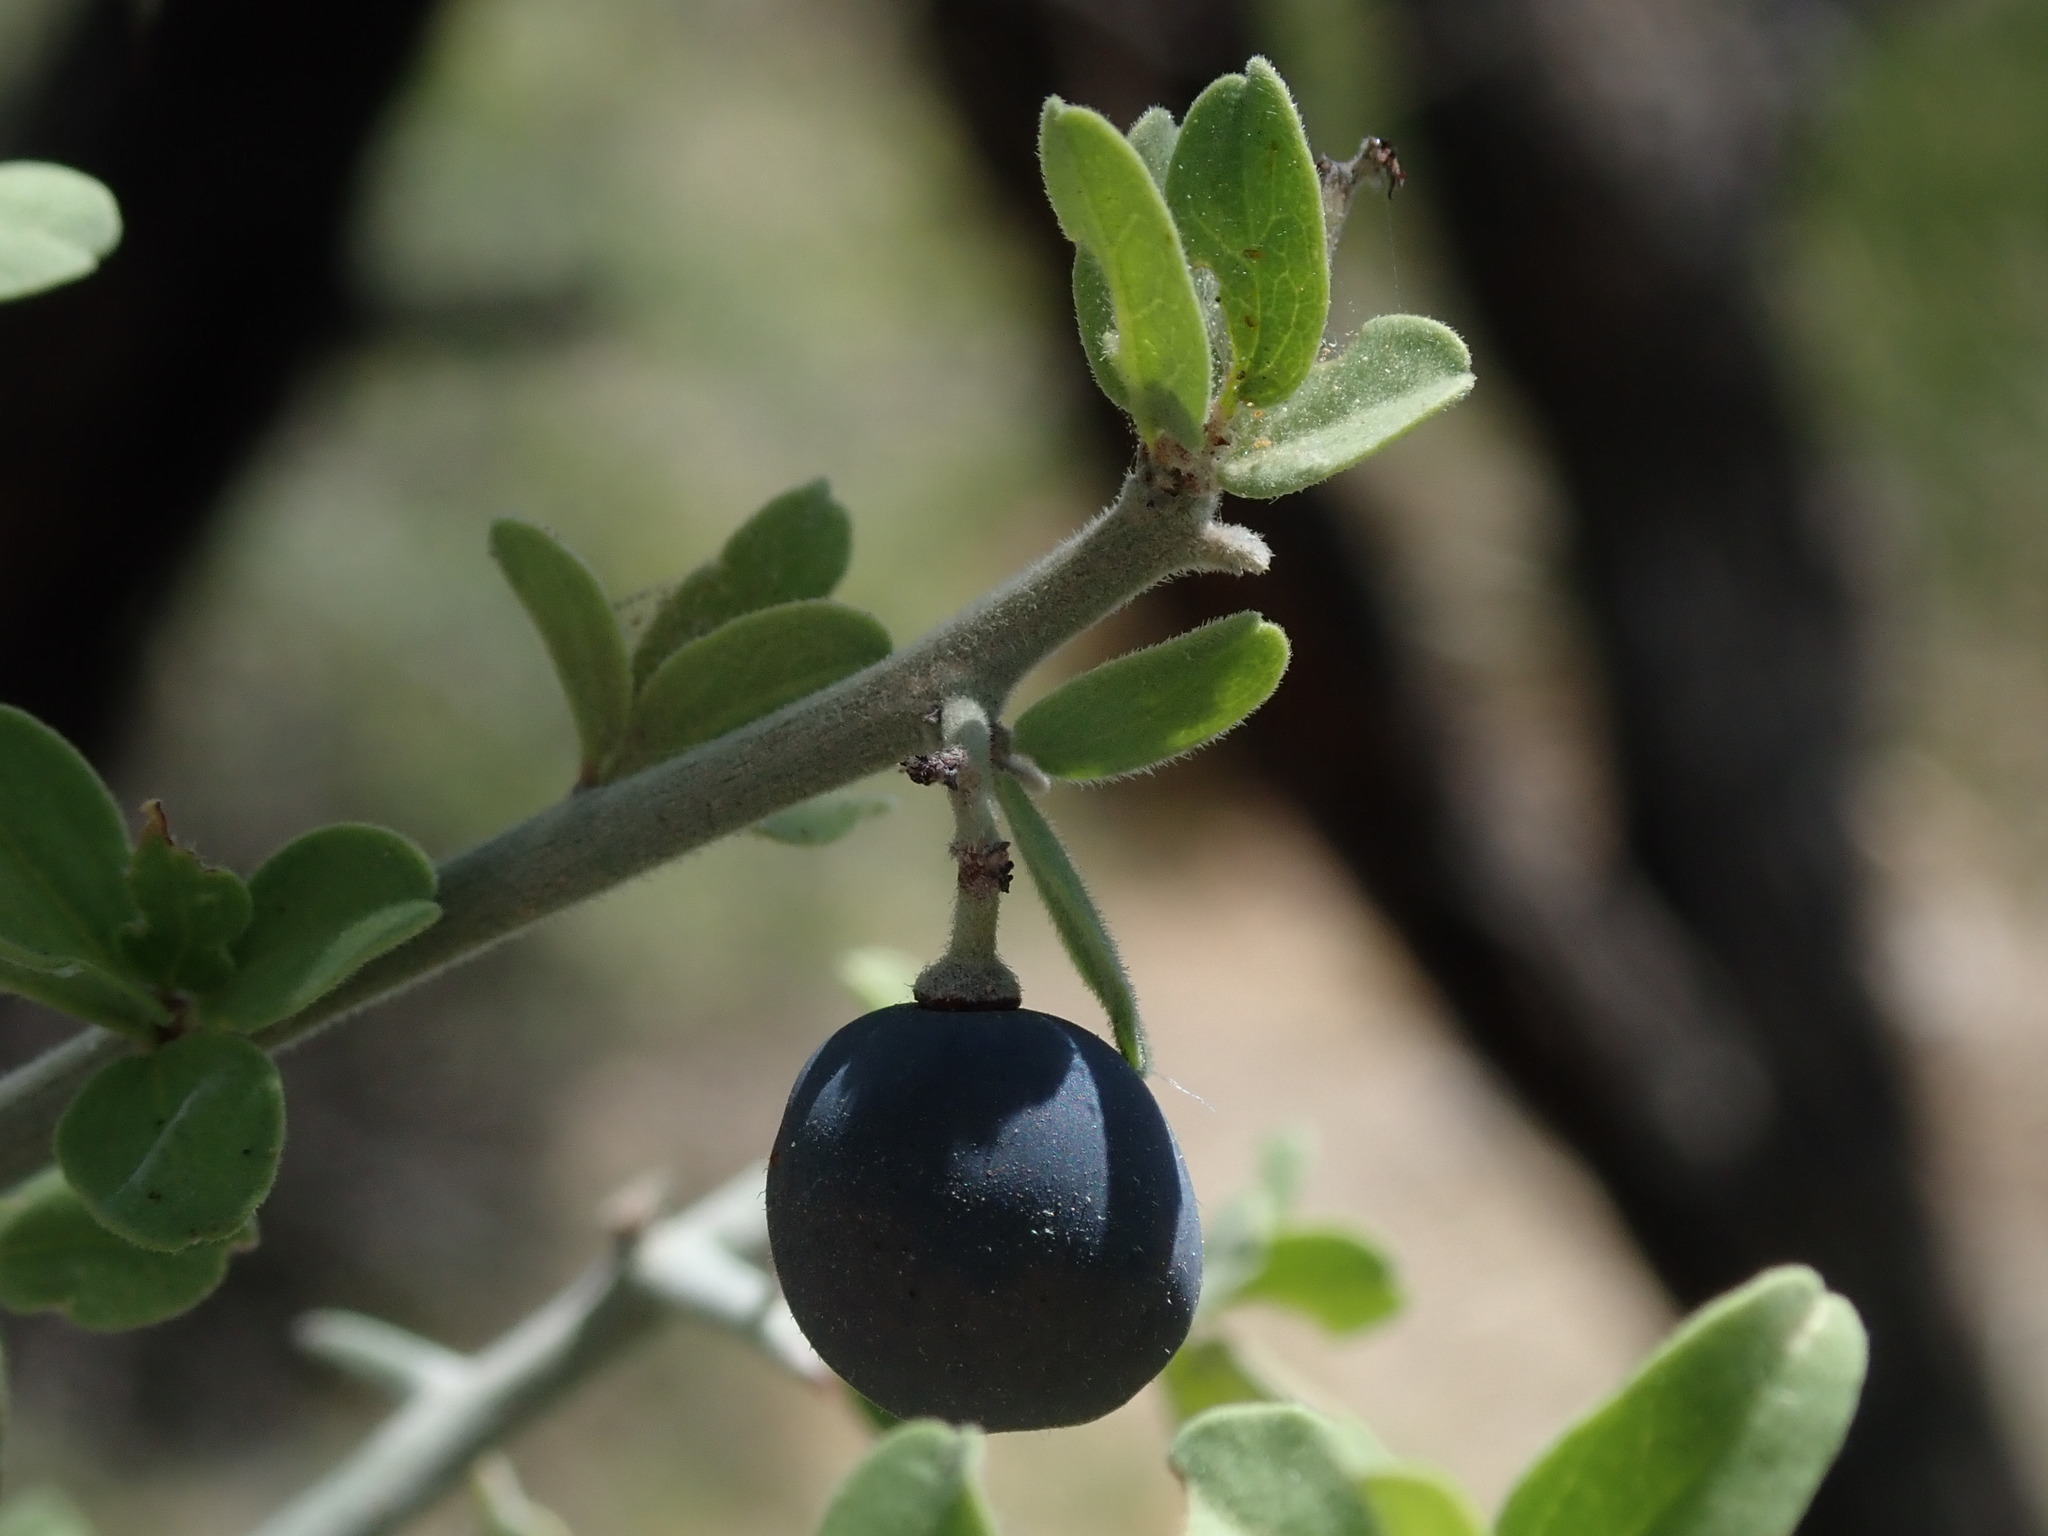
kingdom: Plantae
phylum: Tracheophyta
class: Magnoliopsida
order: Rosales
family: Rhamnaceae
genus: Sarcomphalus
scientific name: Sarcomphalus obtusifolius
